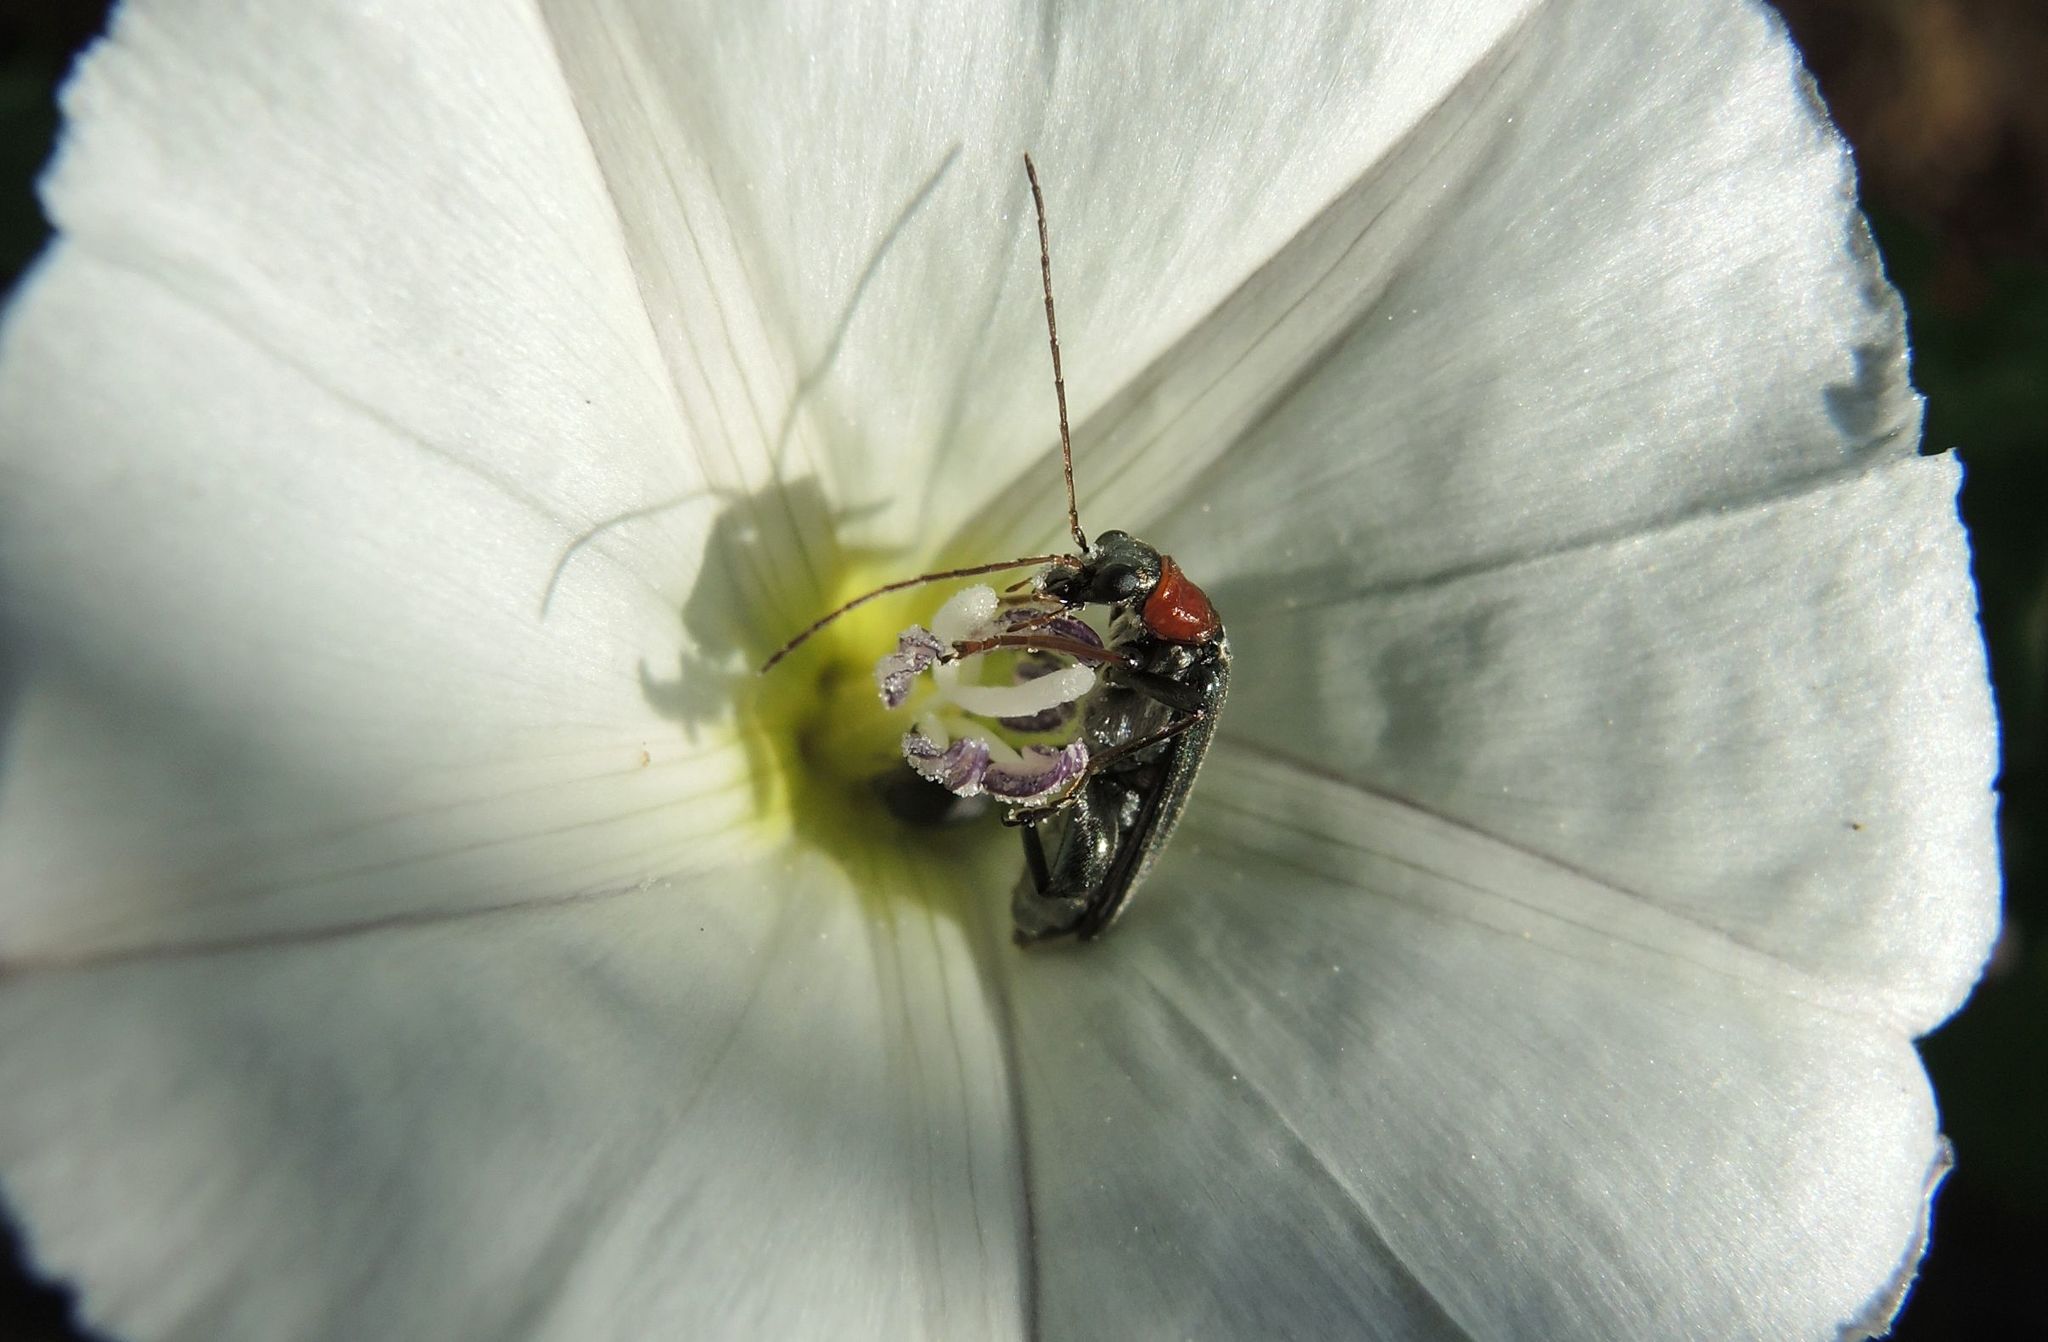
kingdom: Animalia
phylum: Arthropoda
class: Insecta
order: Coleoptera
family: Oedemeridae
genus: Oedemera
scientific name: Oedemera croceicollis
